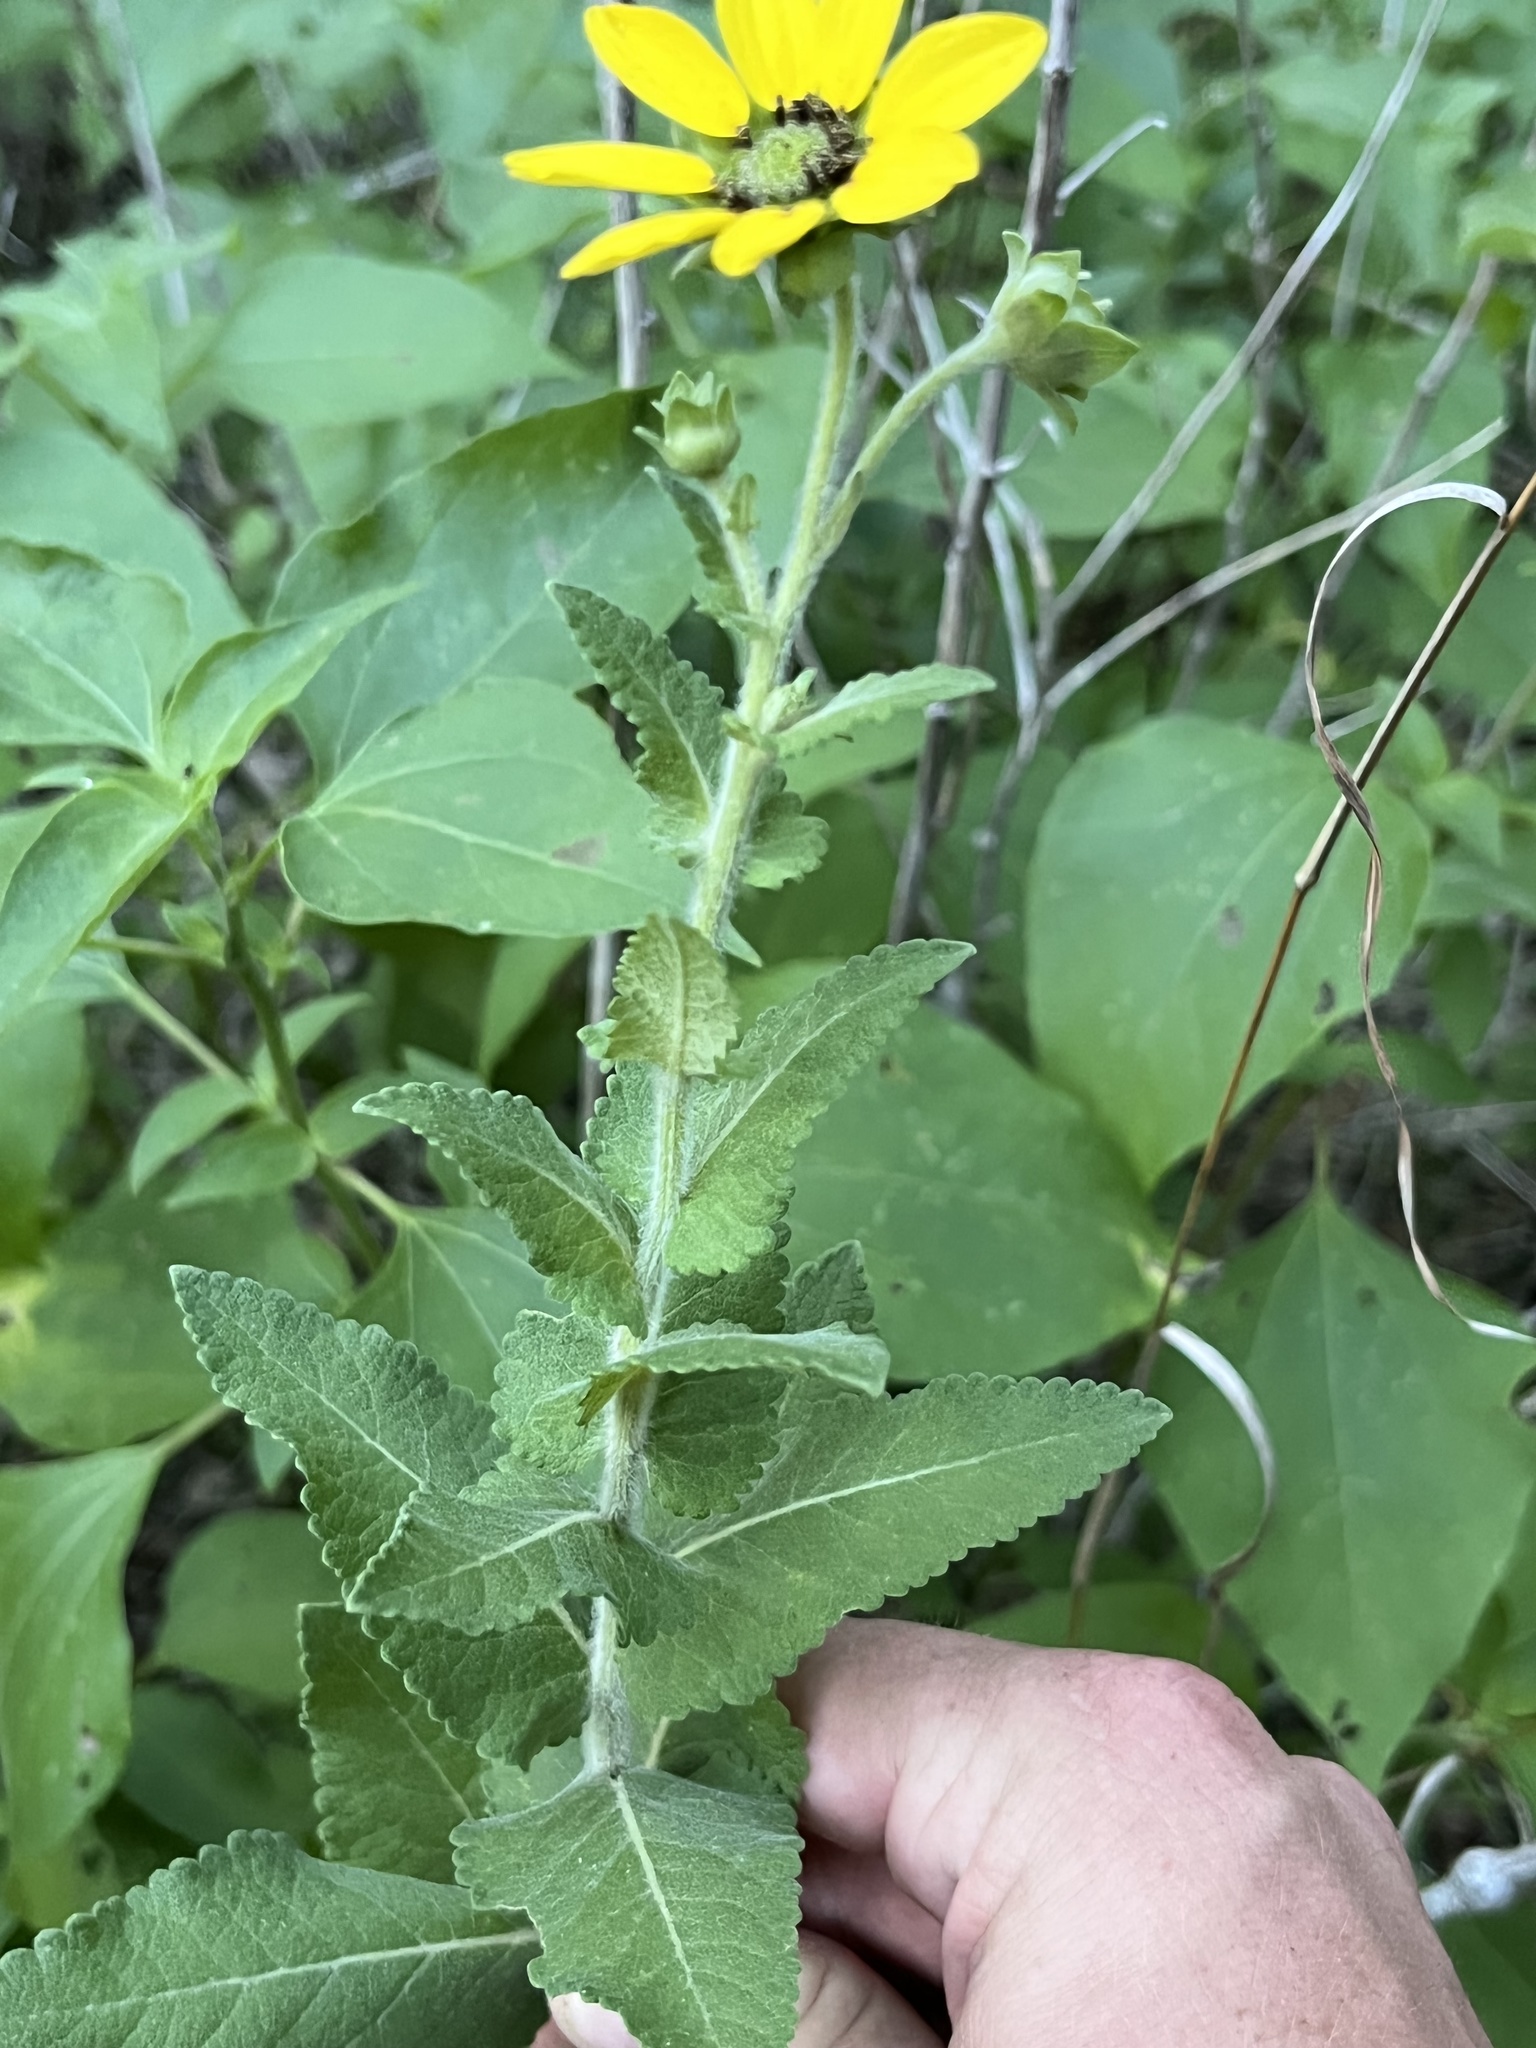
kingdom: Plantae
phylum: Tracheophyta
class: Magnoliopsida
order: Asterales
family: Asteraceae
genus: Berlandiera
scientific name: Berlandiera betonicifolia
